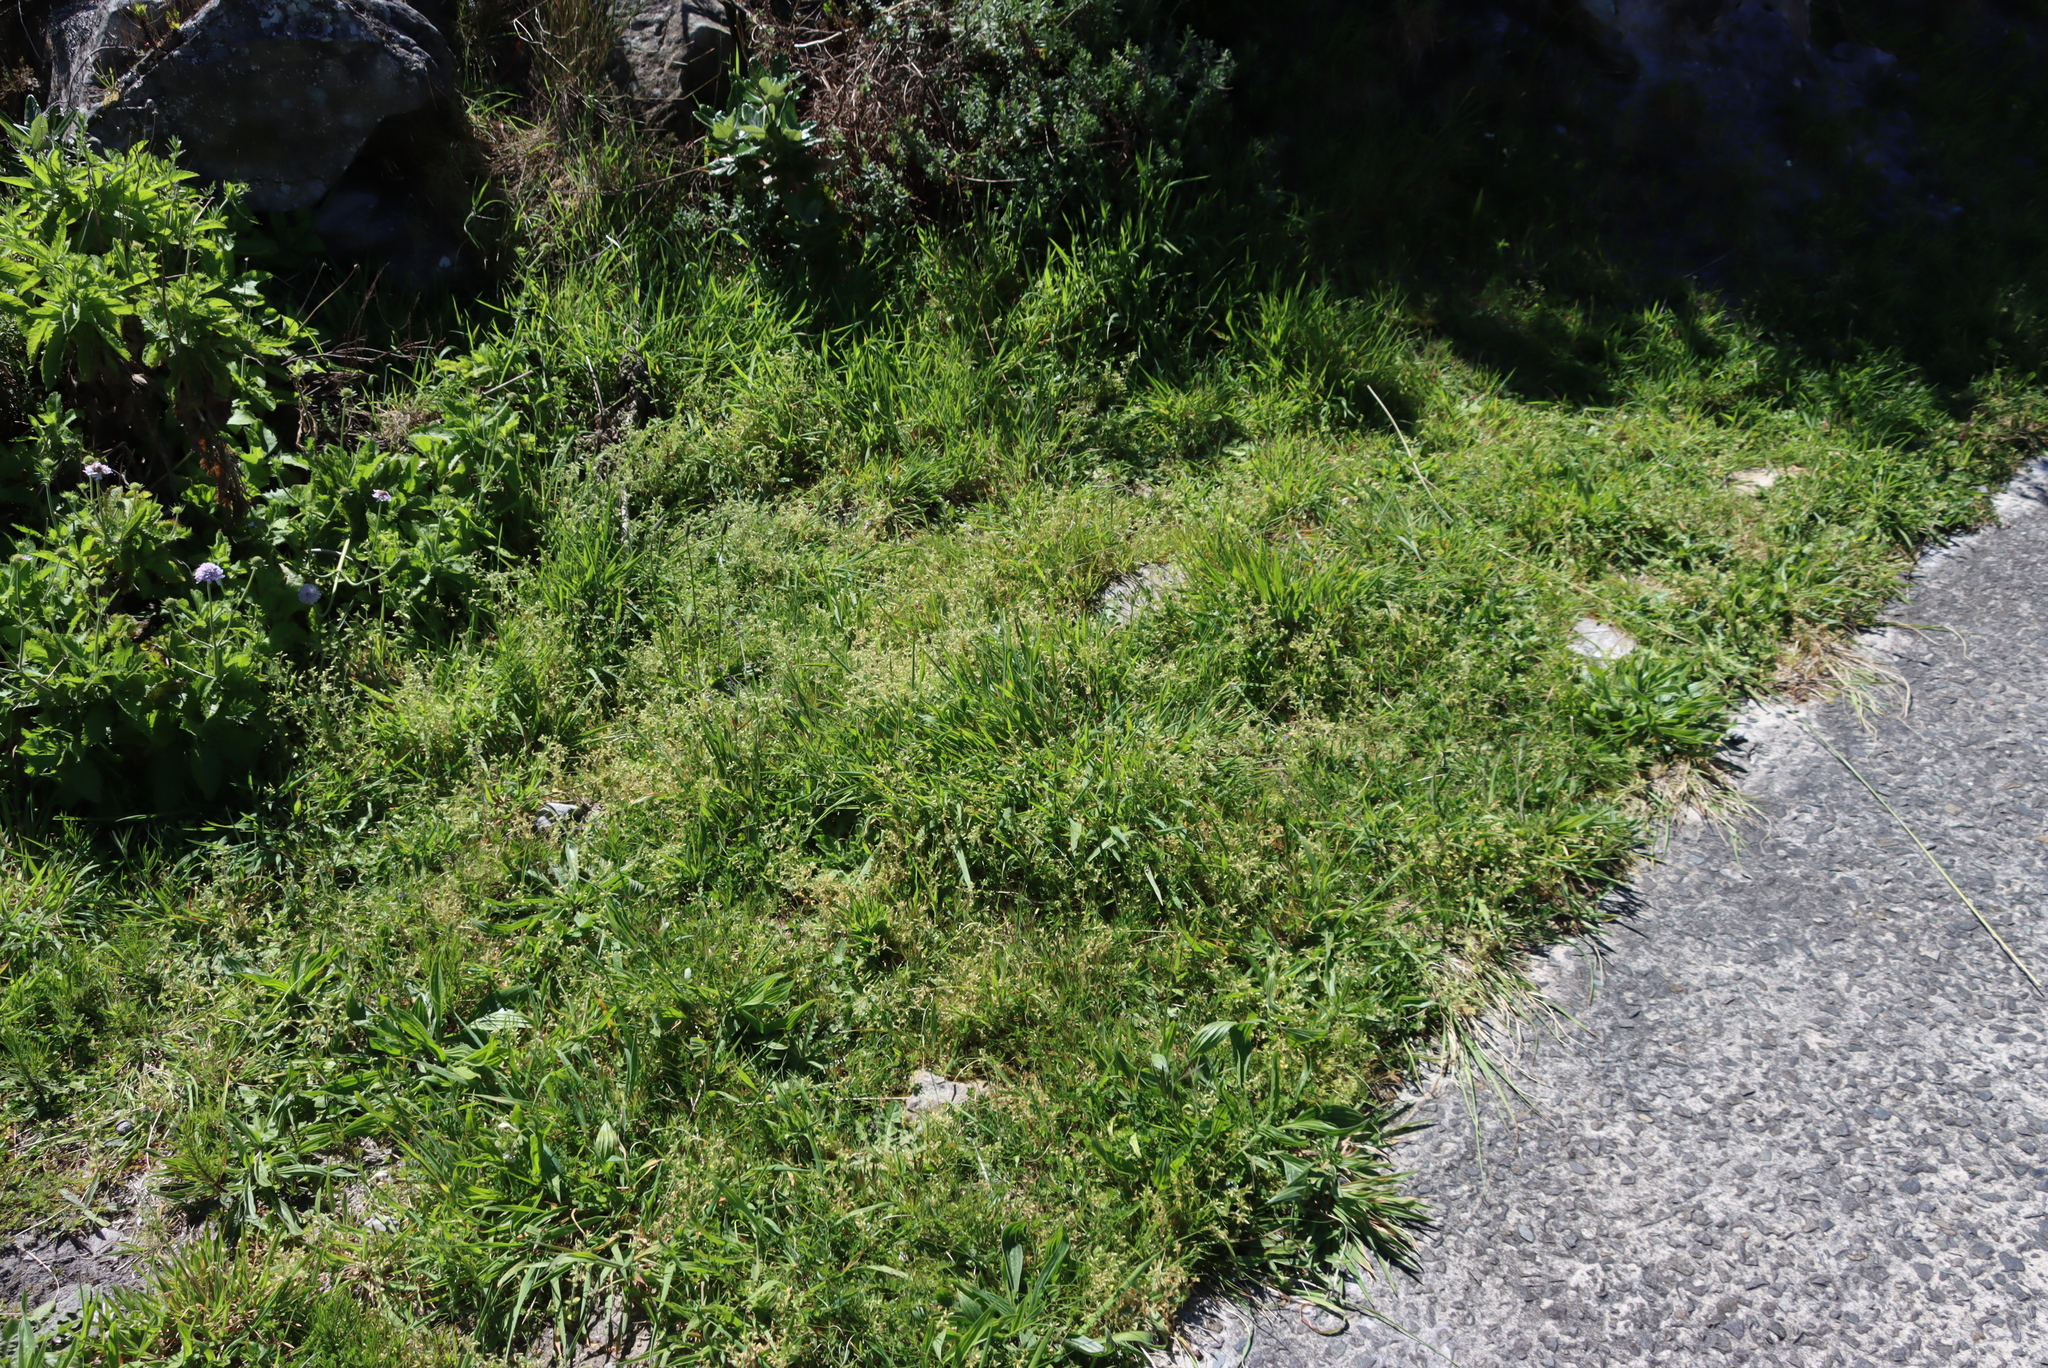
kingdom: Plantae
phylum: Tracheophyta
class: Magnoliopsida
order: Lamiales
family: Plantaginaceae
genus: Plantago
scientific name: Plantago lanceolata
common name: Ribwort plantain
